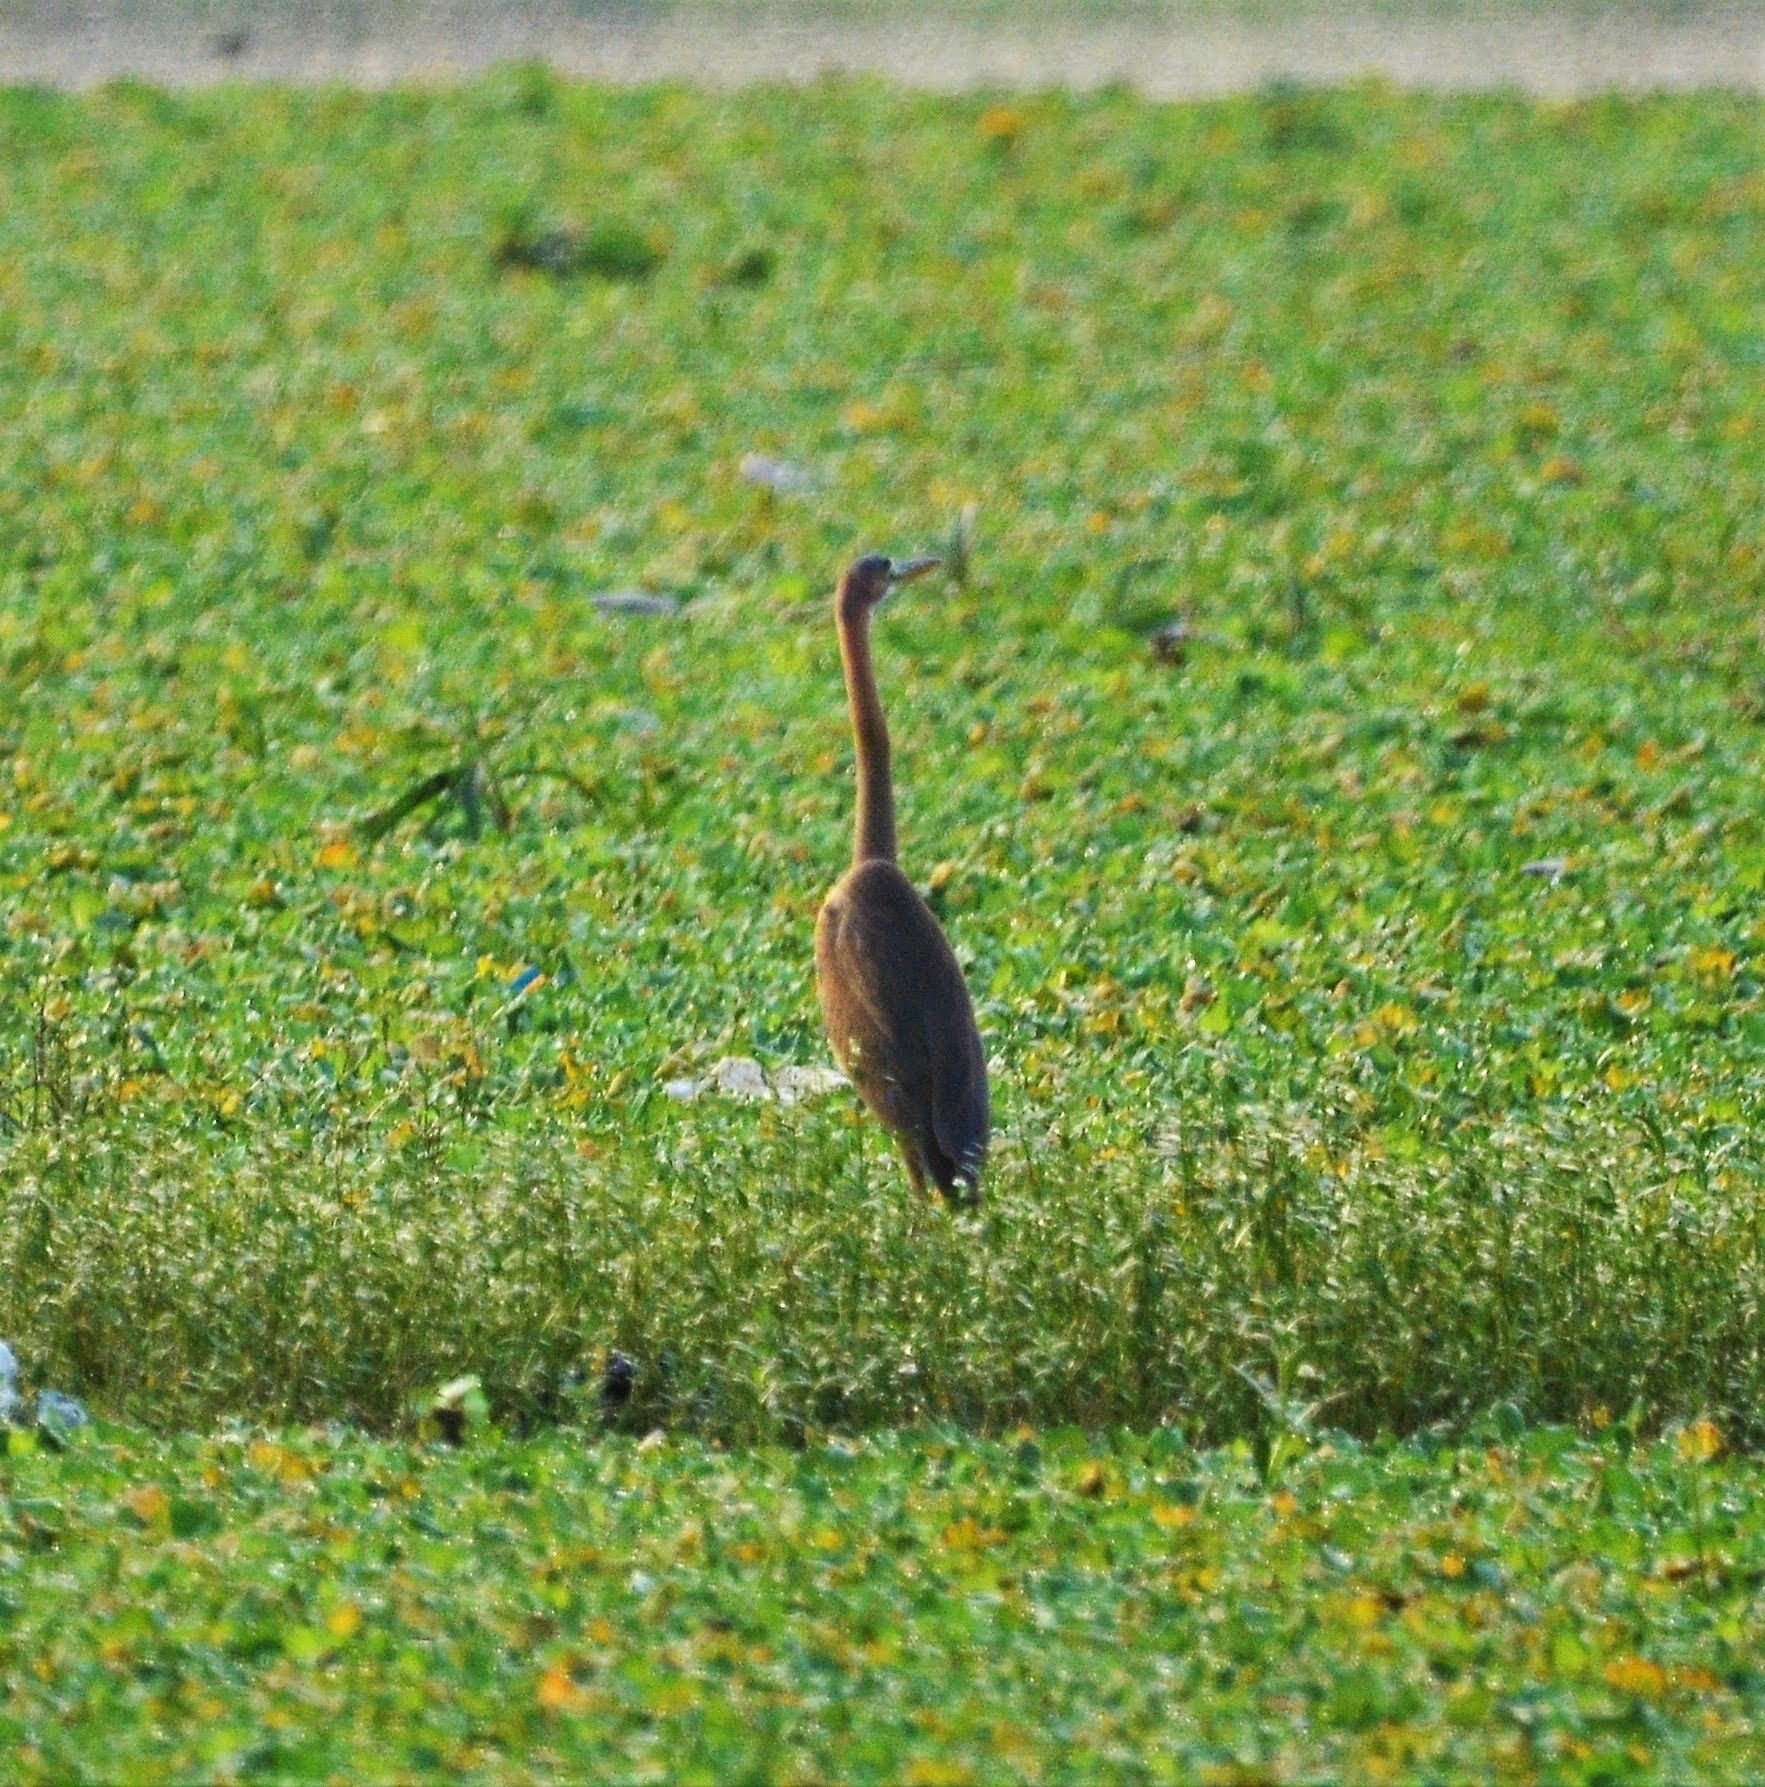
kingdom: Animalia
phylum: Chordata
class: Aves
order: Pelecaniformes
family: Ardeidae
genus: Ardea
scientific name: Ardea purpurea
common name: Purple heron
